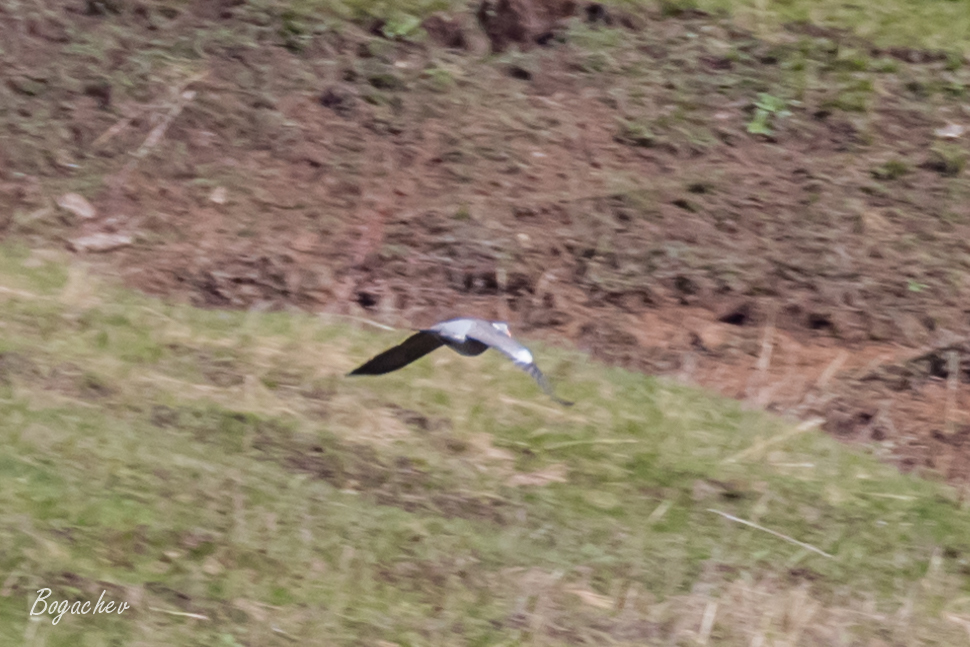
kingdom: Animalia
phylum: Chordata
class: Aves
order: Columbiformes
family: Columbidae
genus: Columba
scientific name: Columba palumbus
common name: Common wood pigeon
